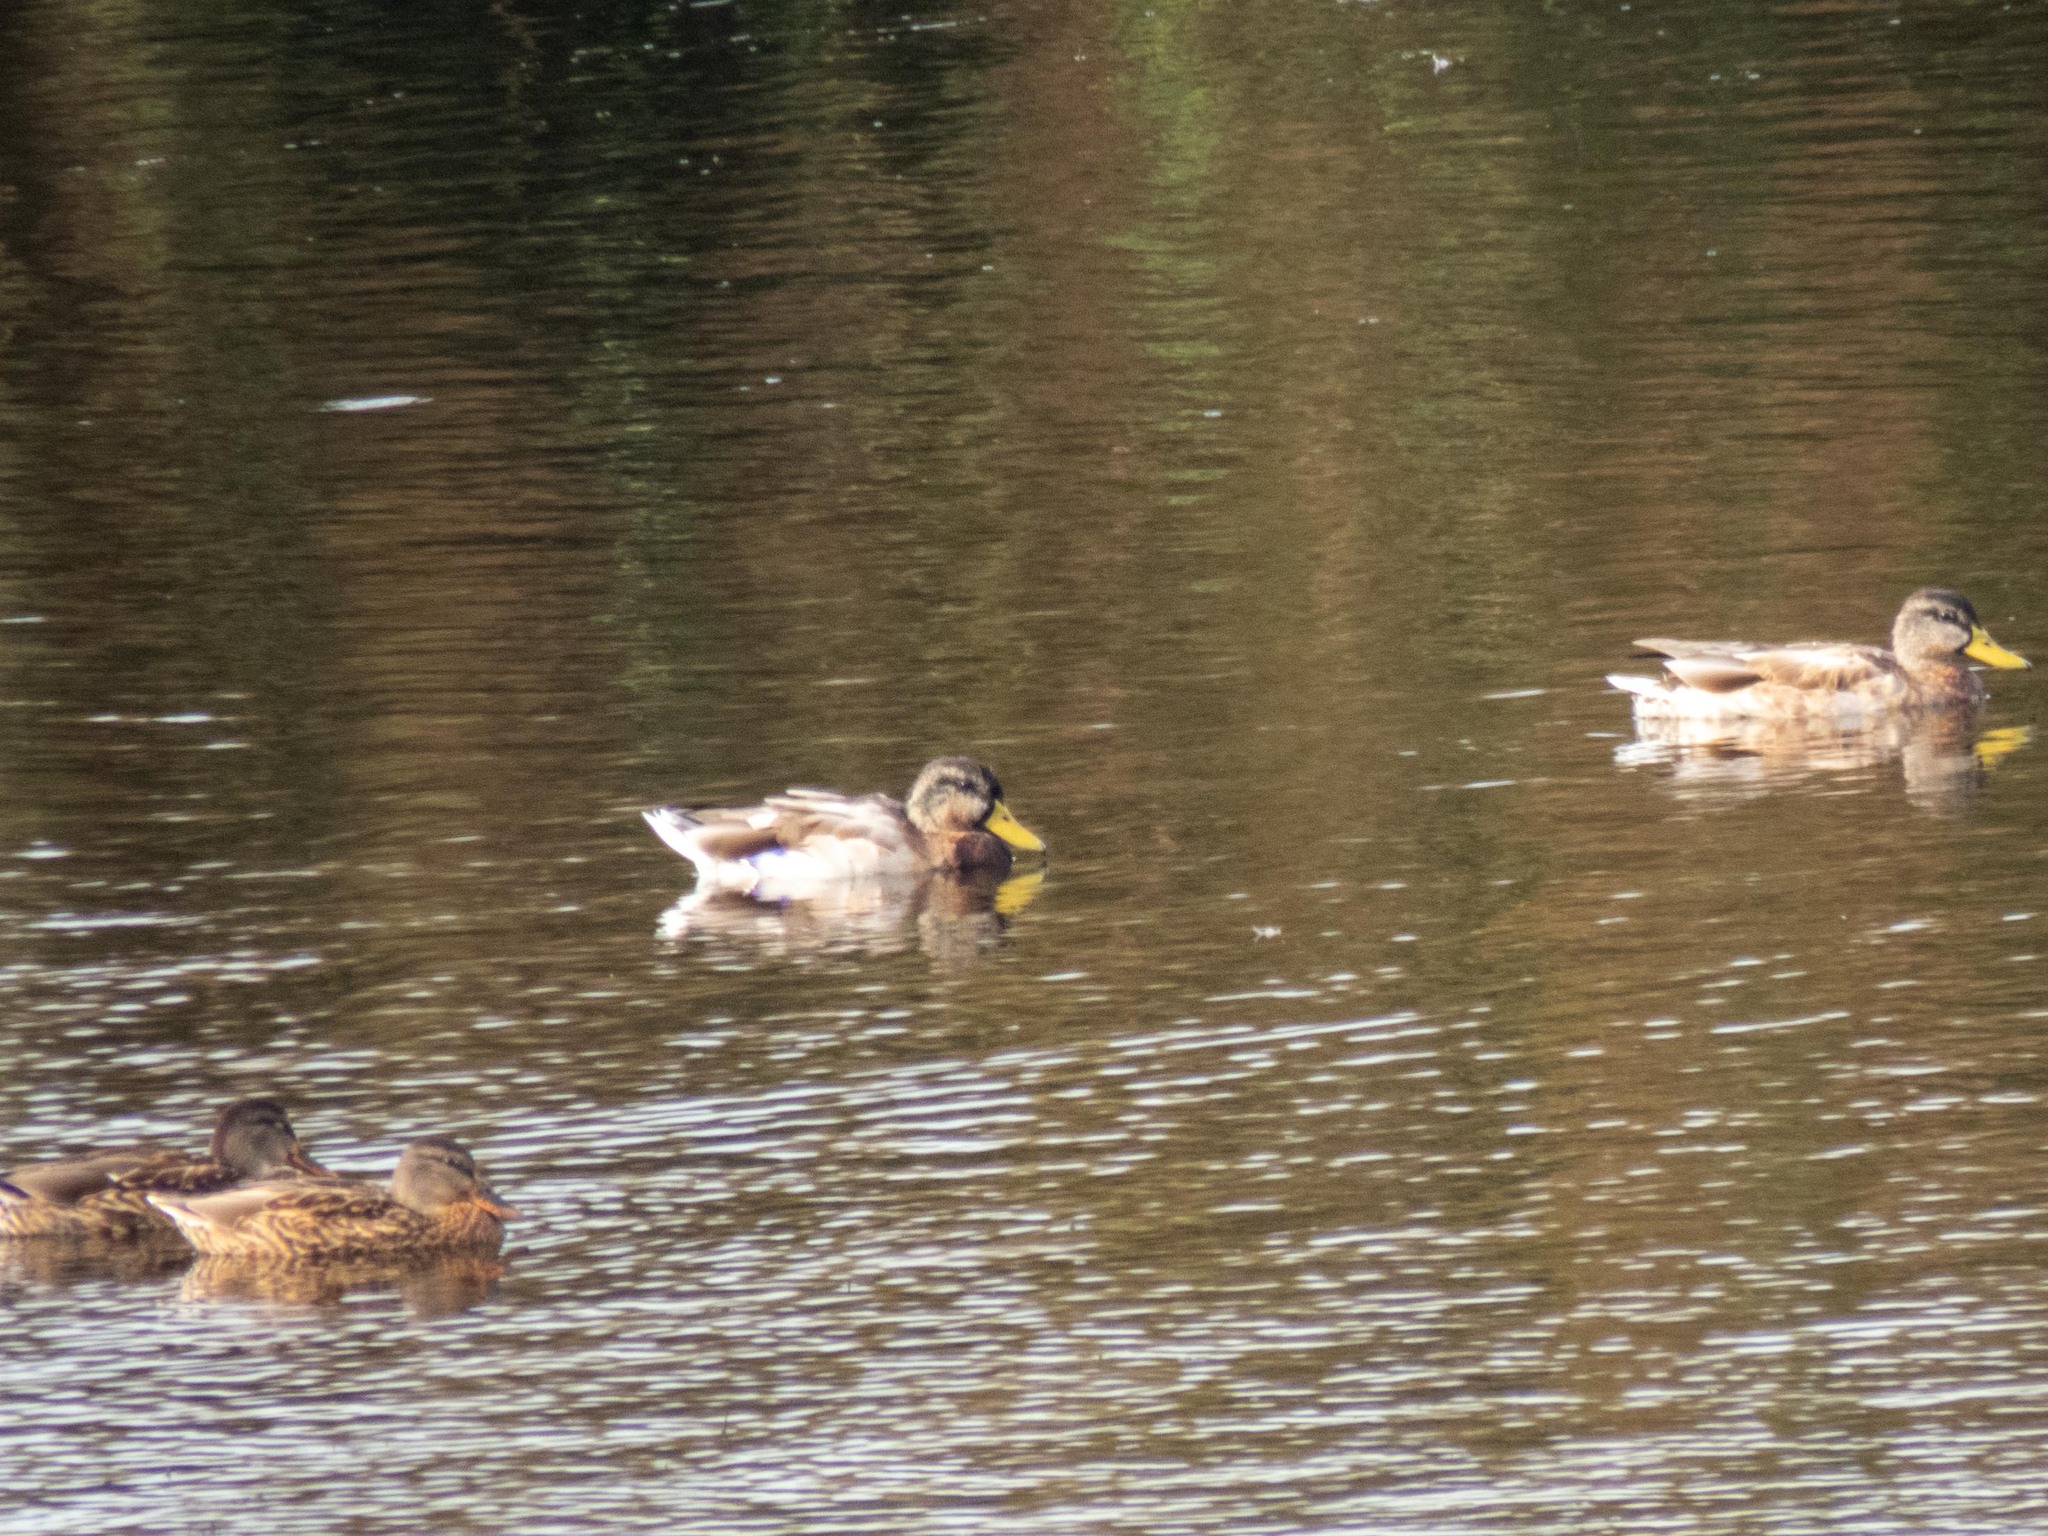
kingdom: Animalia
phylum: Chordata
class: Aves
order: Anseriformes
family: Anatidae
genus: Anas
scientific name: Anas platyrhynchos
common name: Mallard
